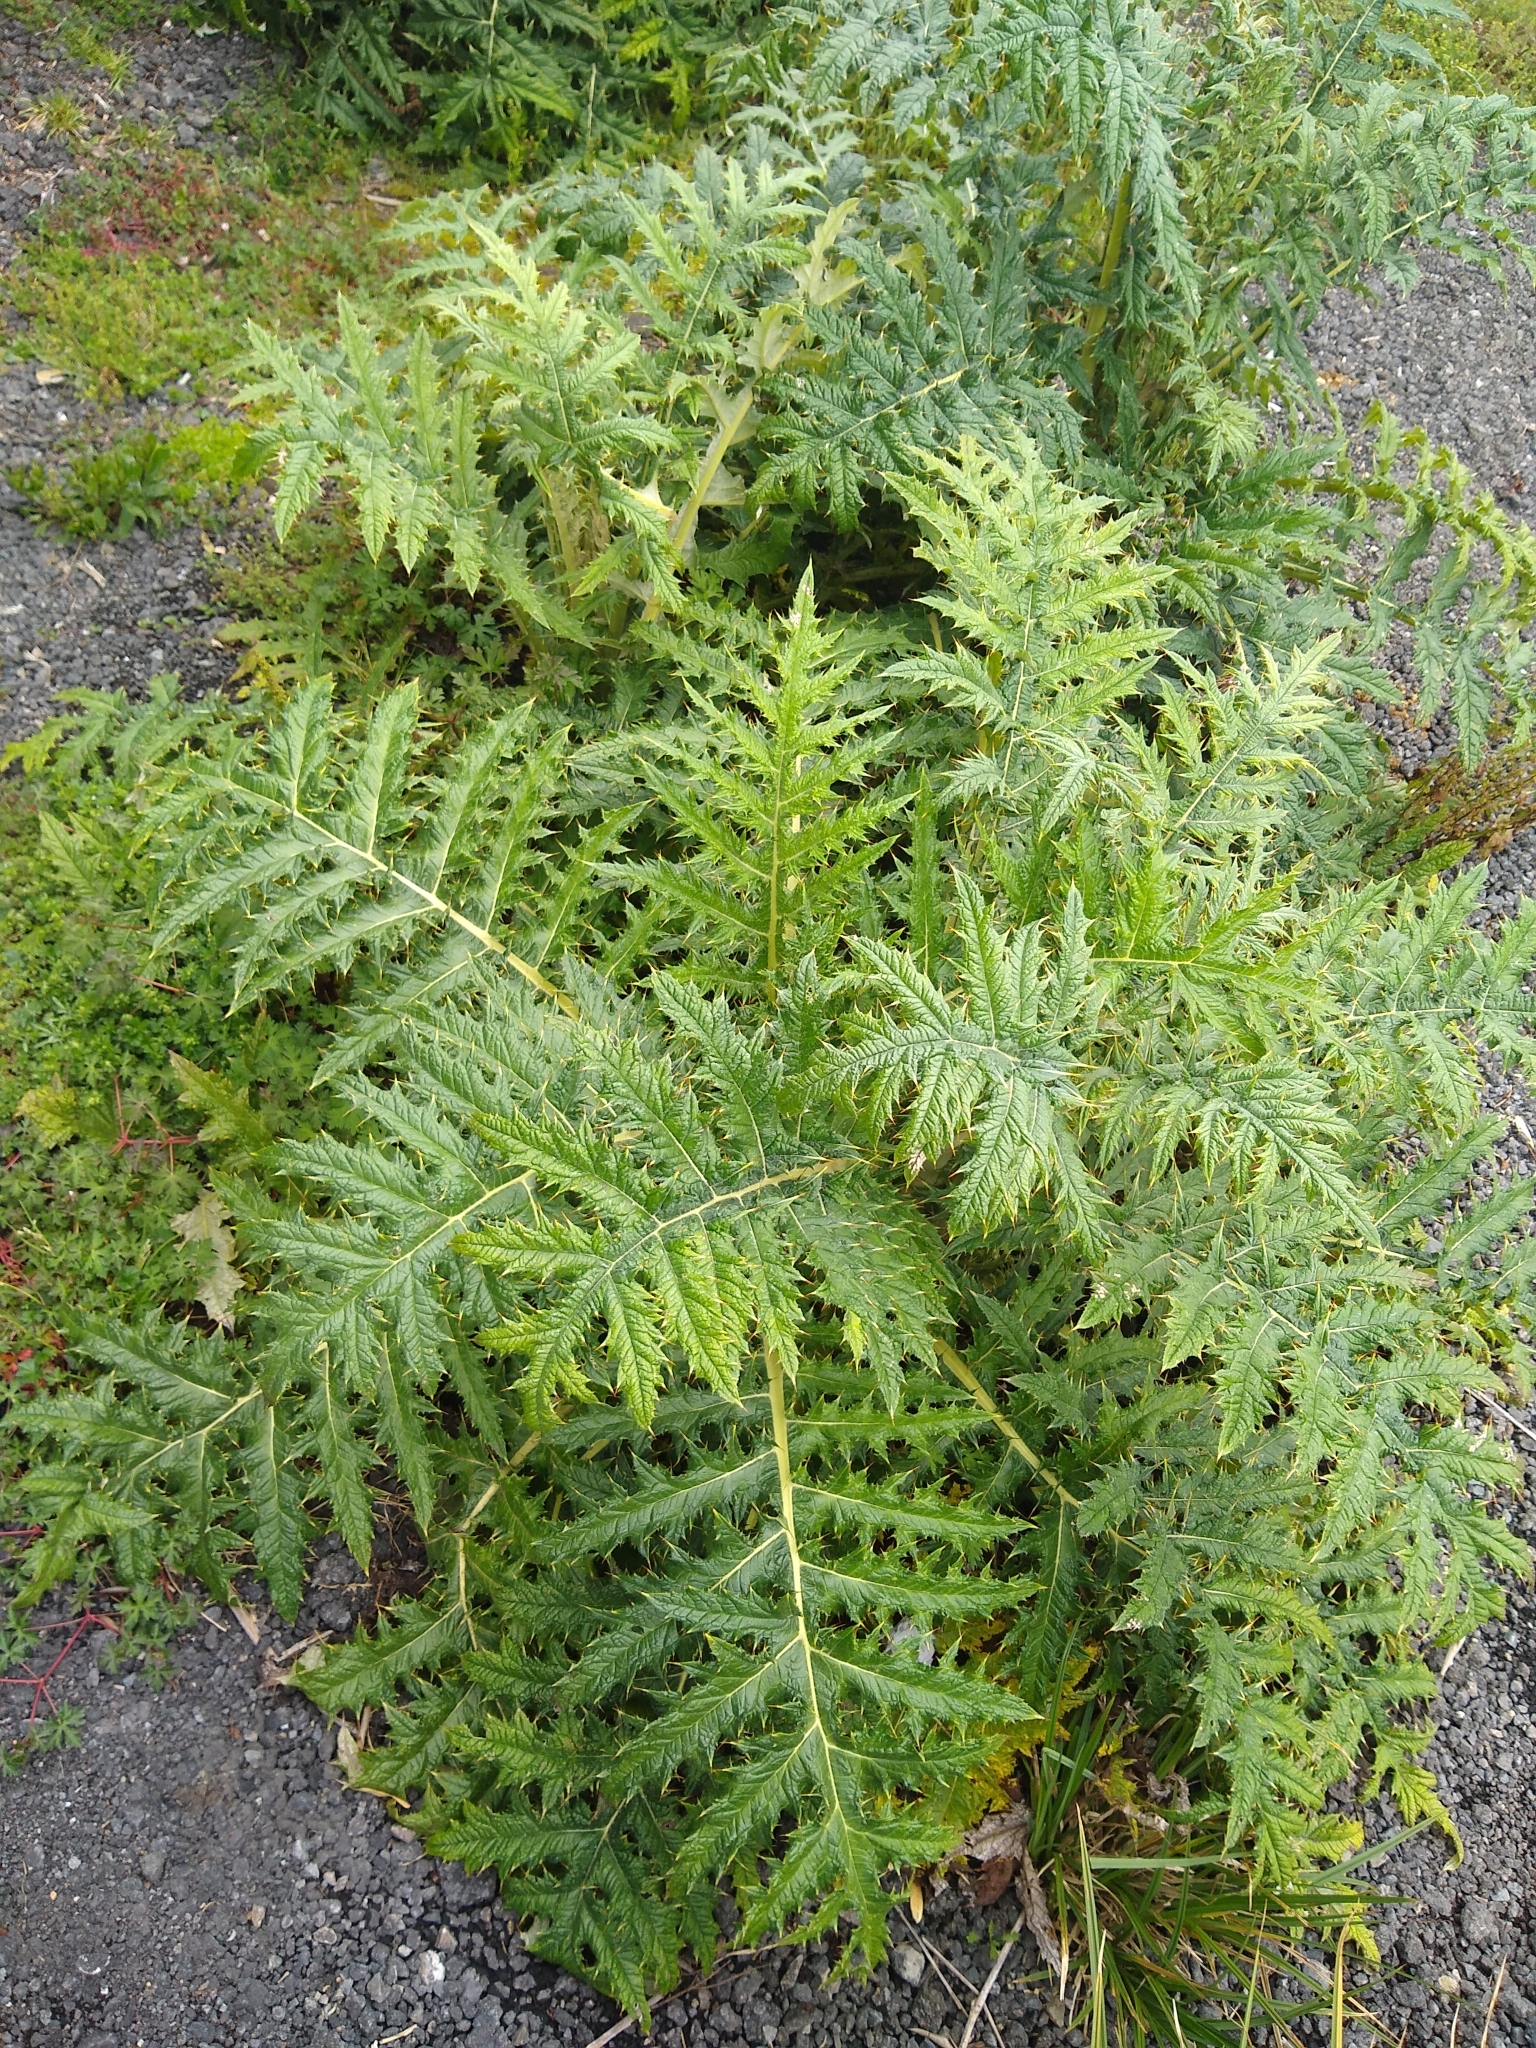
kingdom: Plantae
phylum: Tracheophyta
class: Magnoliopsida
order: Asterales
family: Asteraceae
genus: Cirsium
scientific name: Cirsium subcoriaceum
